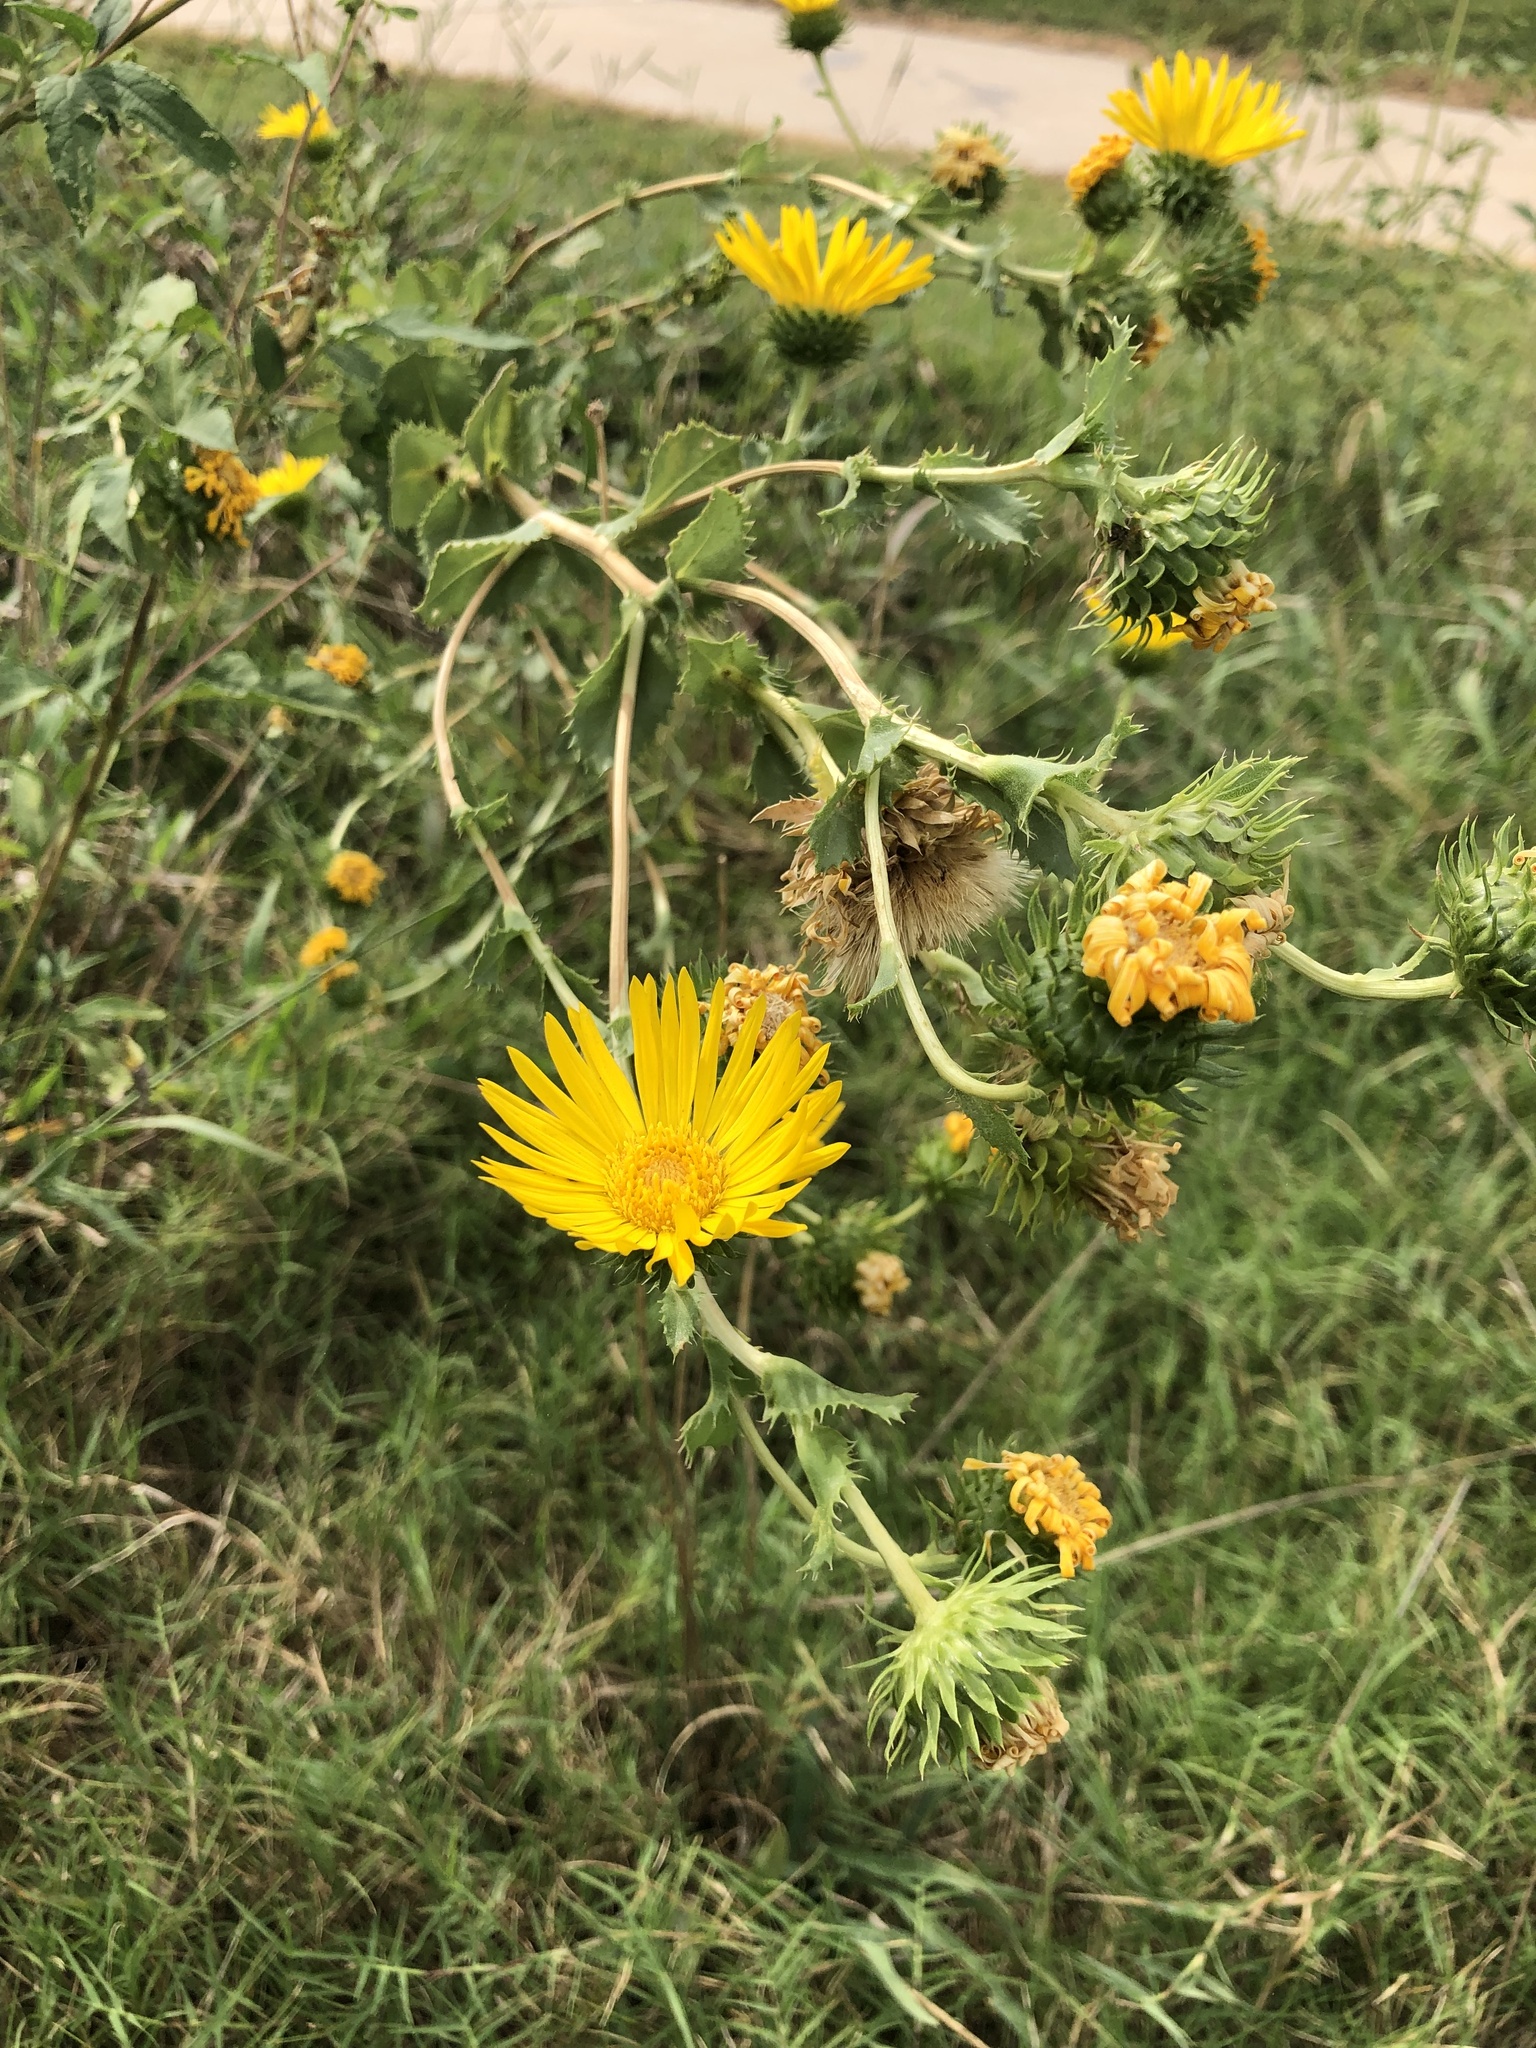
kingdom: Plantae
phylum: Tracheophyta
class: Magnoliopsida
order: Asterales
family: Asteraceae
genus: Grindelia
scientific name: Grindelia ciliata
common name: Goldenweed
